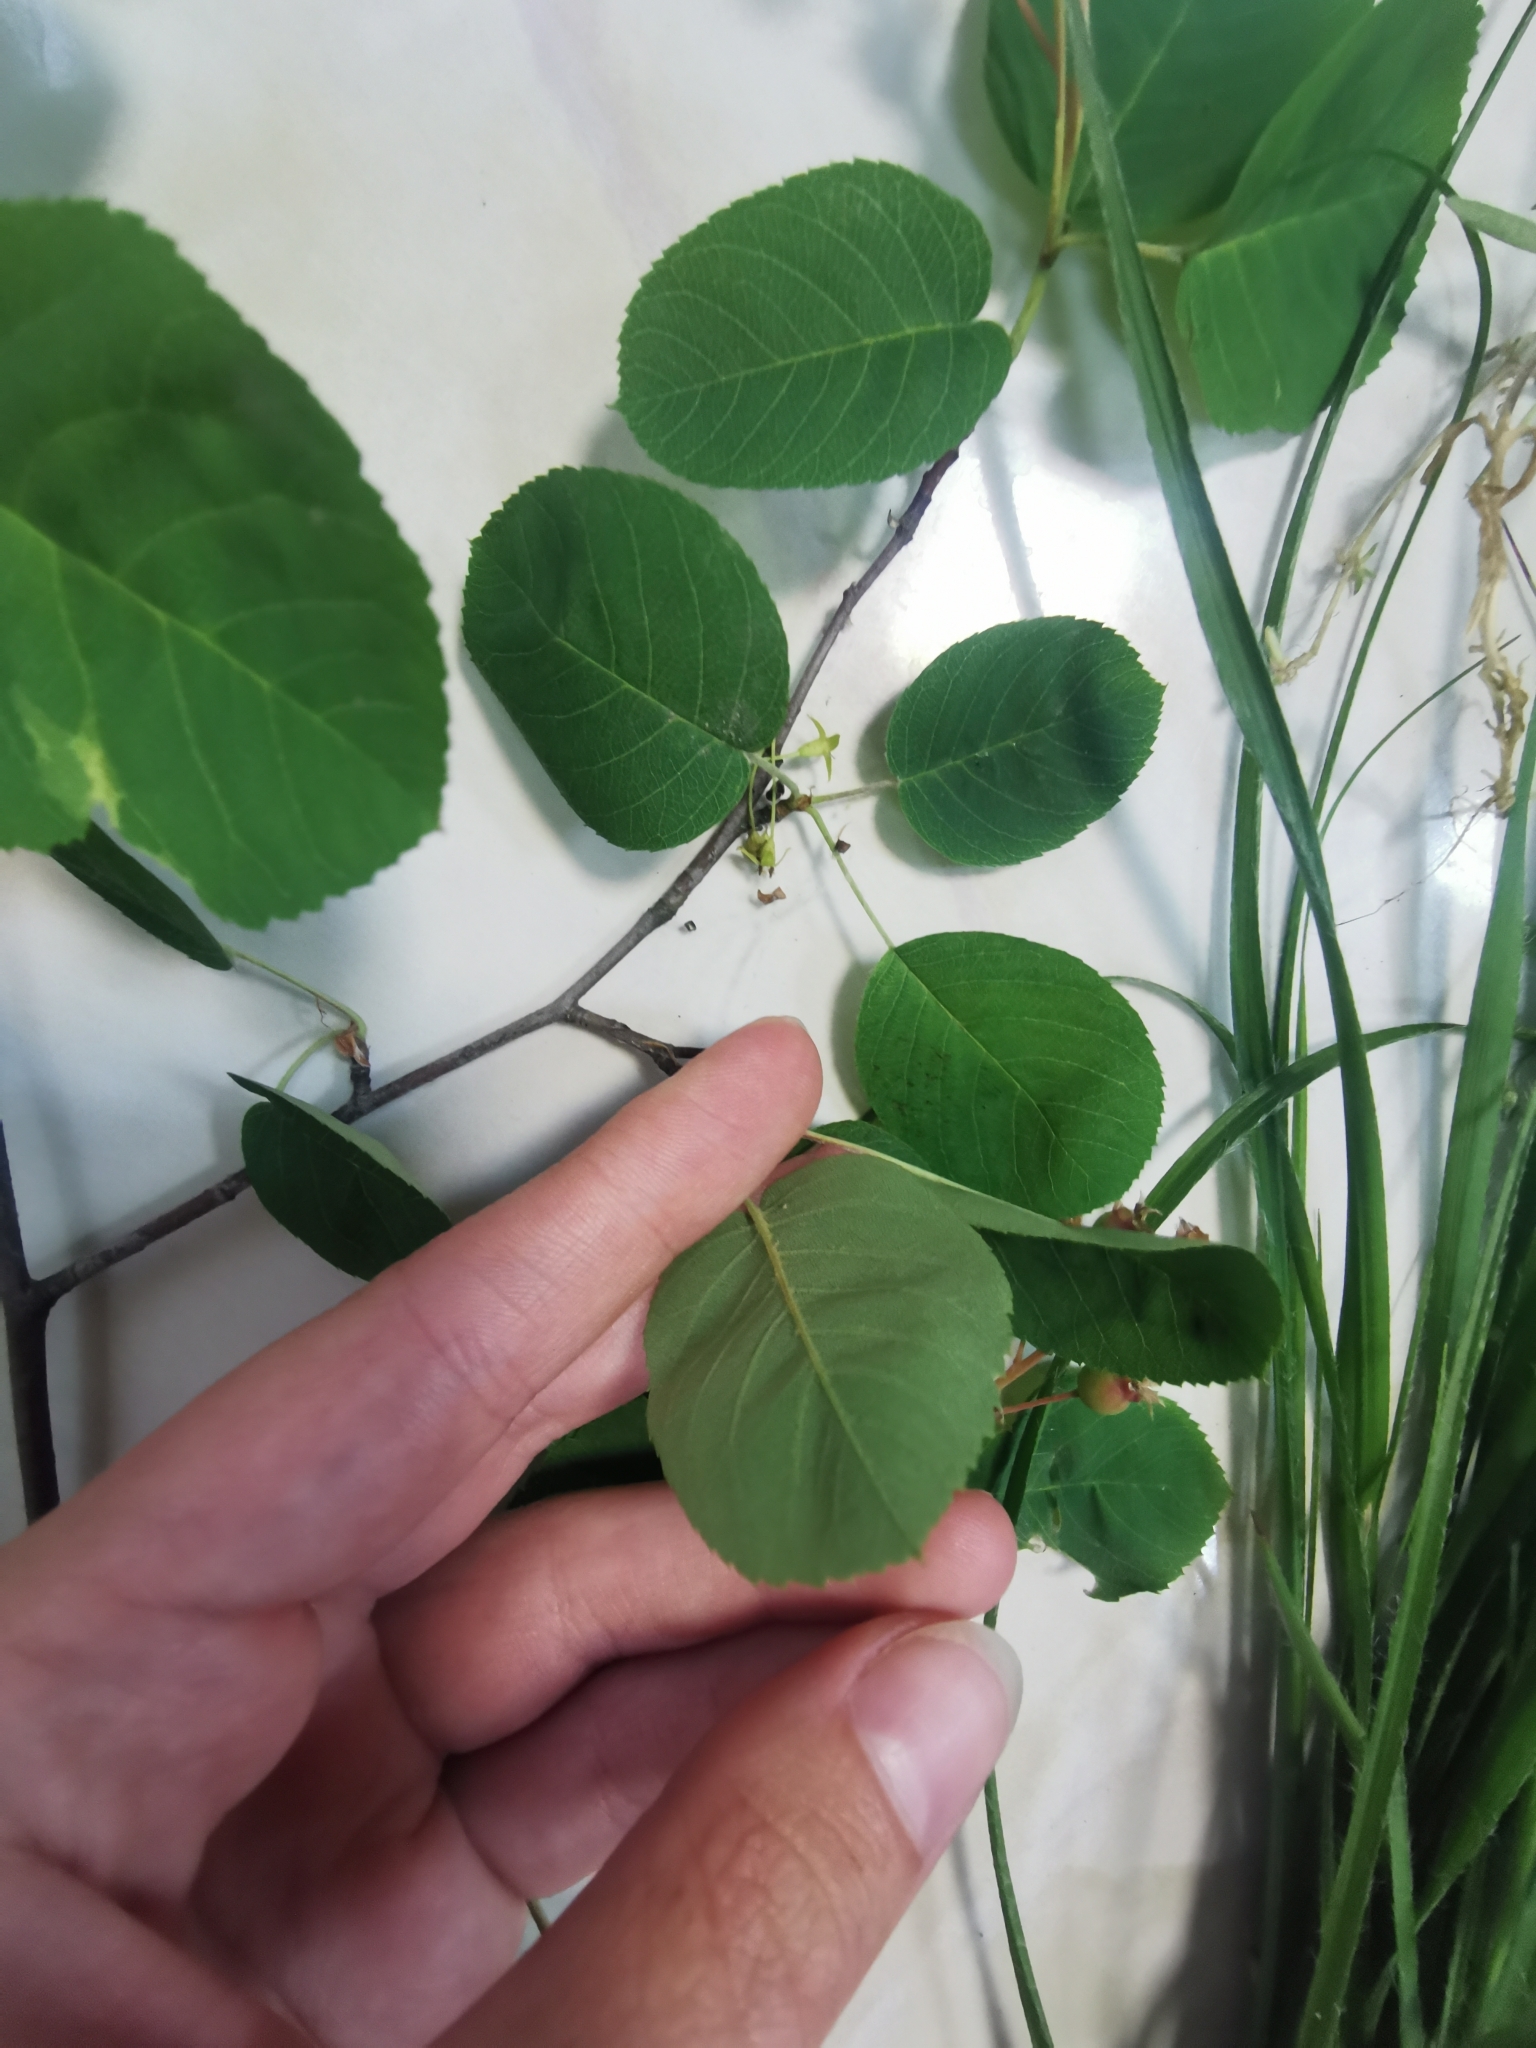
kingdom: Plantae
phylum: Tracheophyta
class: Magnoliopsida
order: Rosales
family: Rosaceae
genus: Amelanchier
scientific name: Amelanchier
